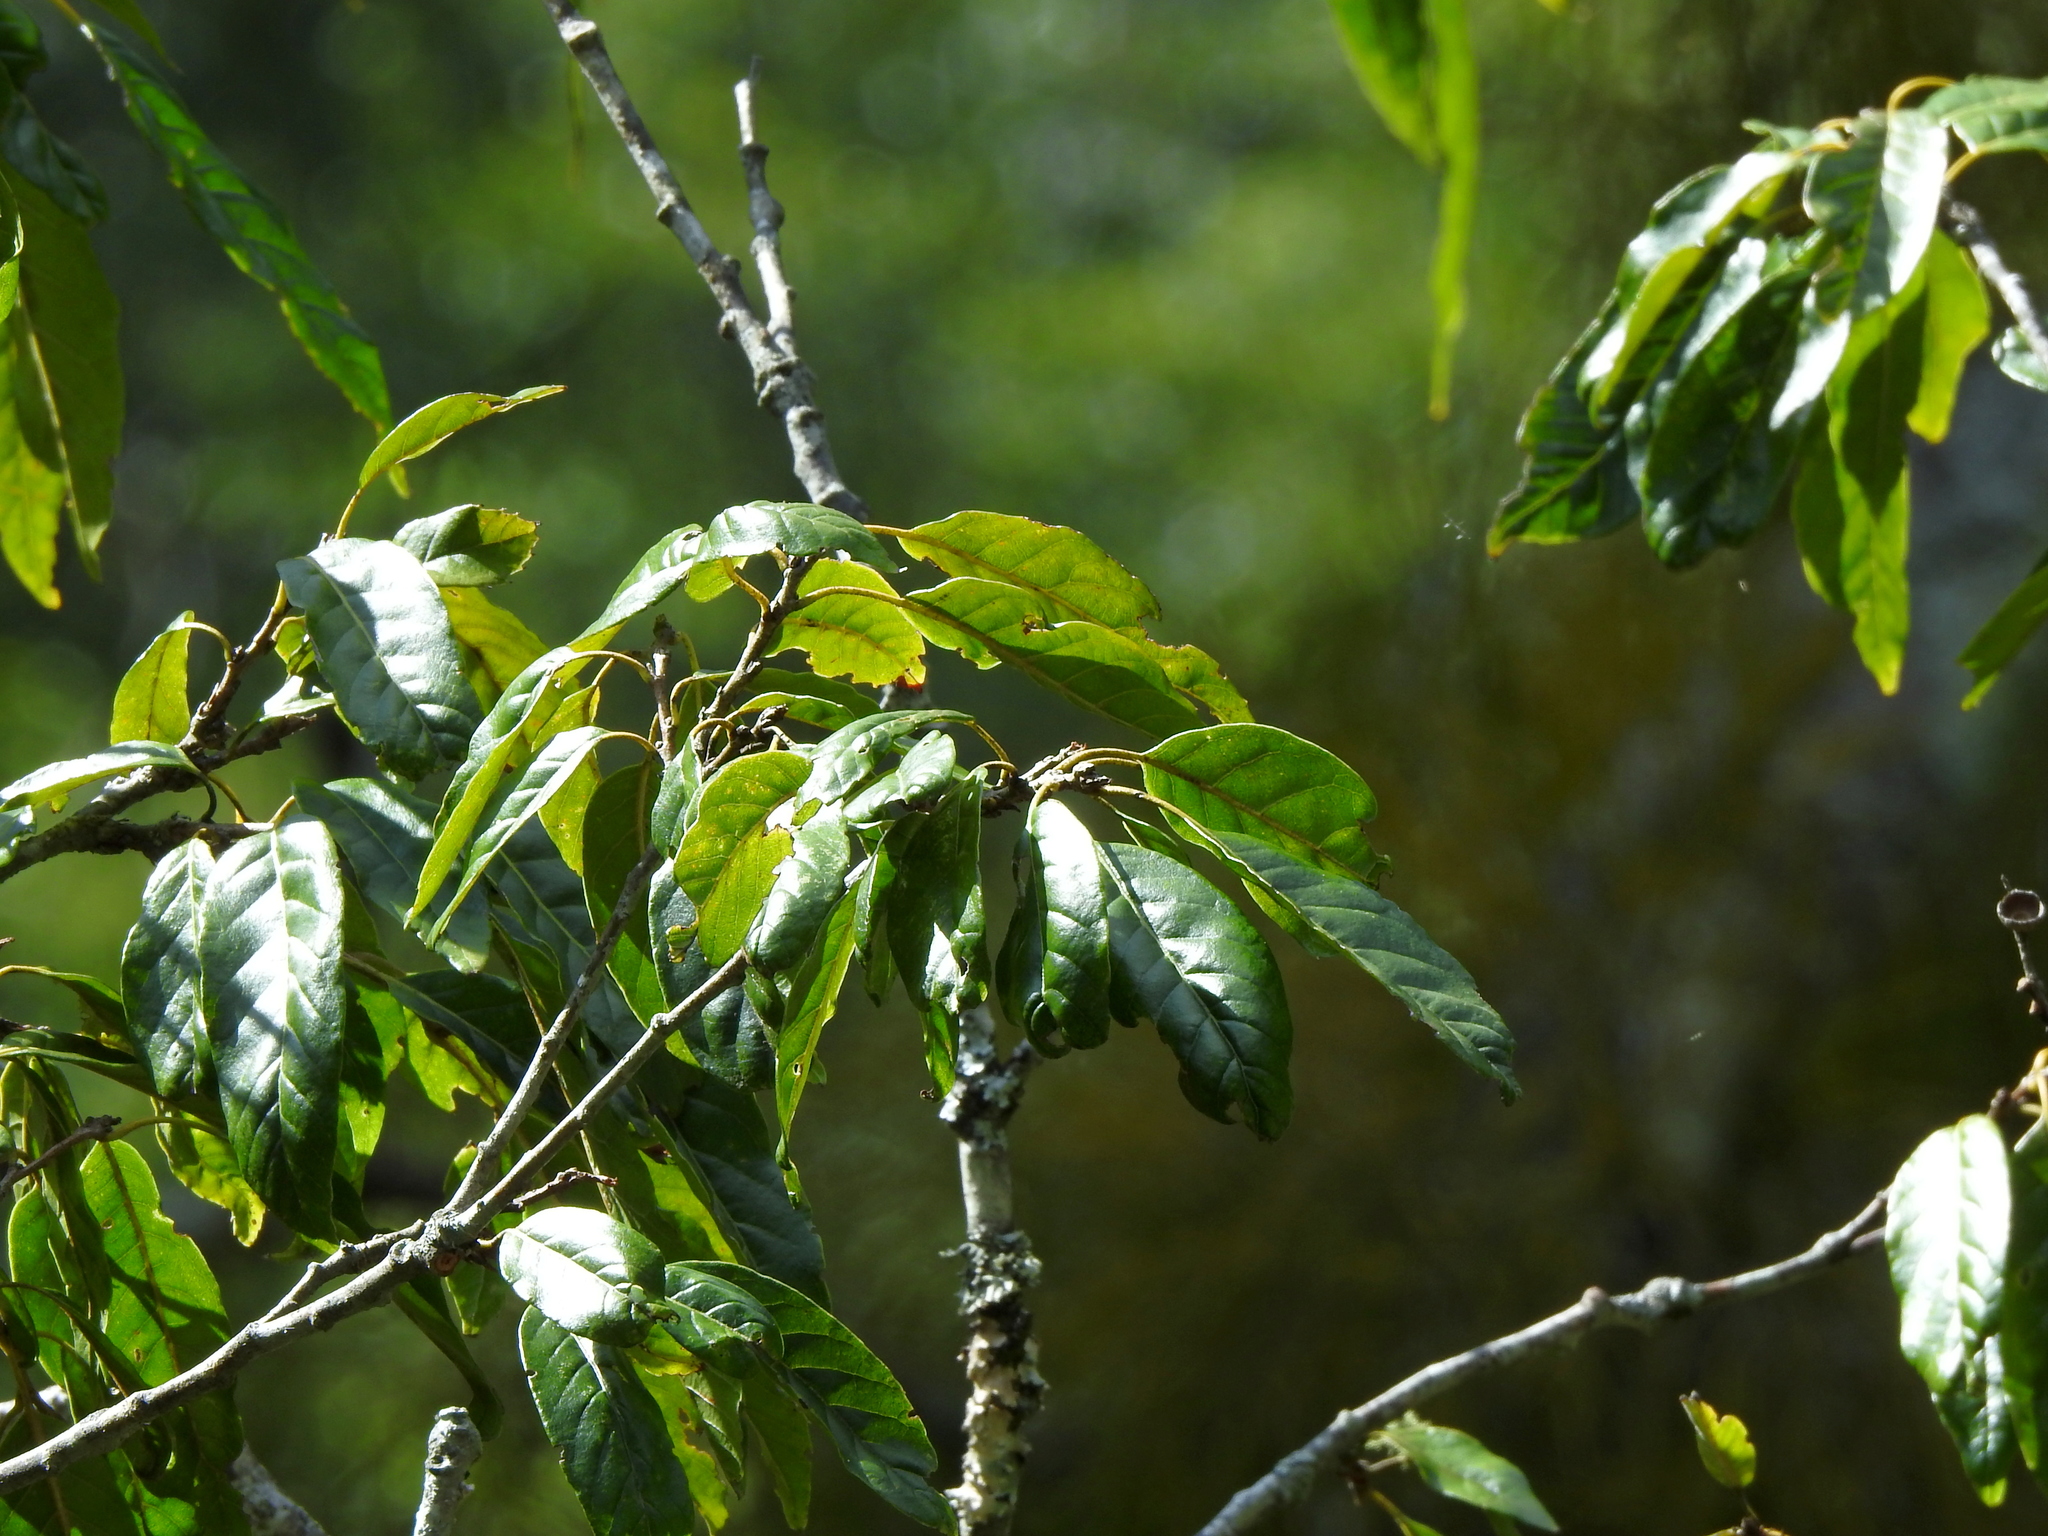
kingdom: Plantae
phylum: Tracheophyta
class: Magnoliopsida
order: Fagales
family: Fagaceae
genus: Quercus
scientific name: Quercus tatakaensis
